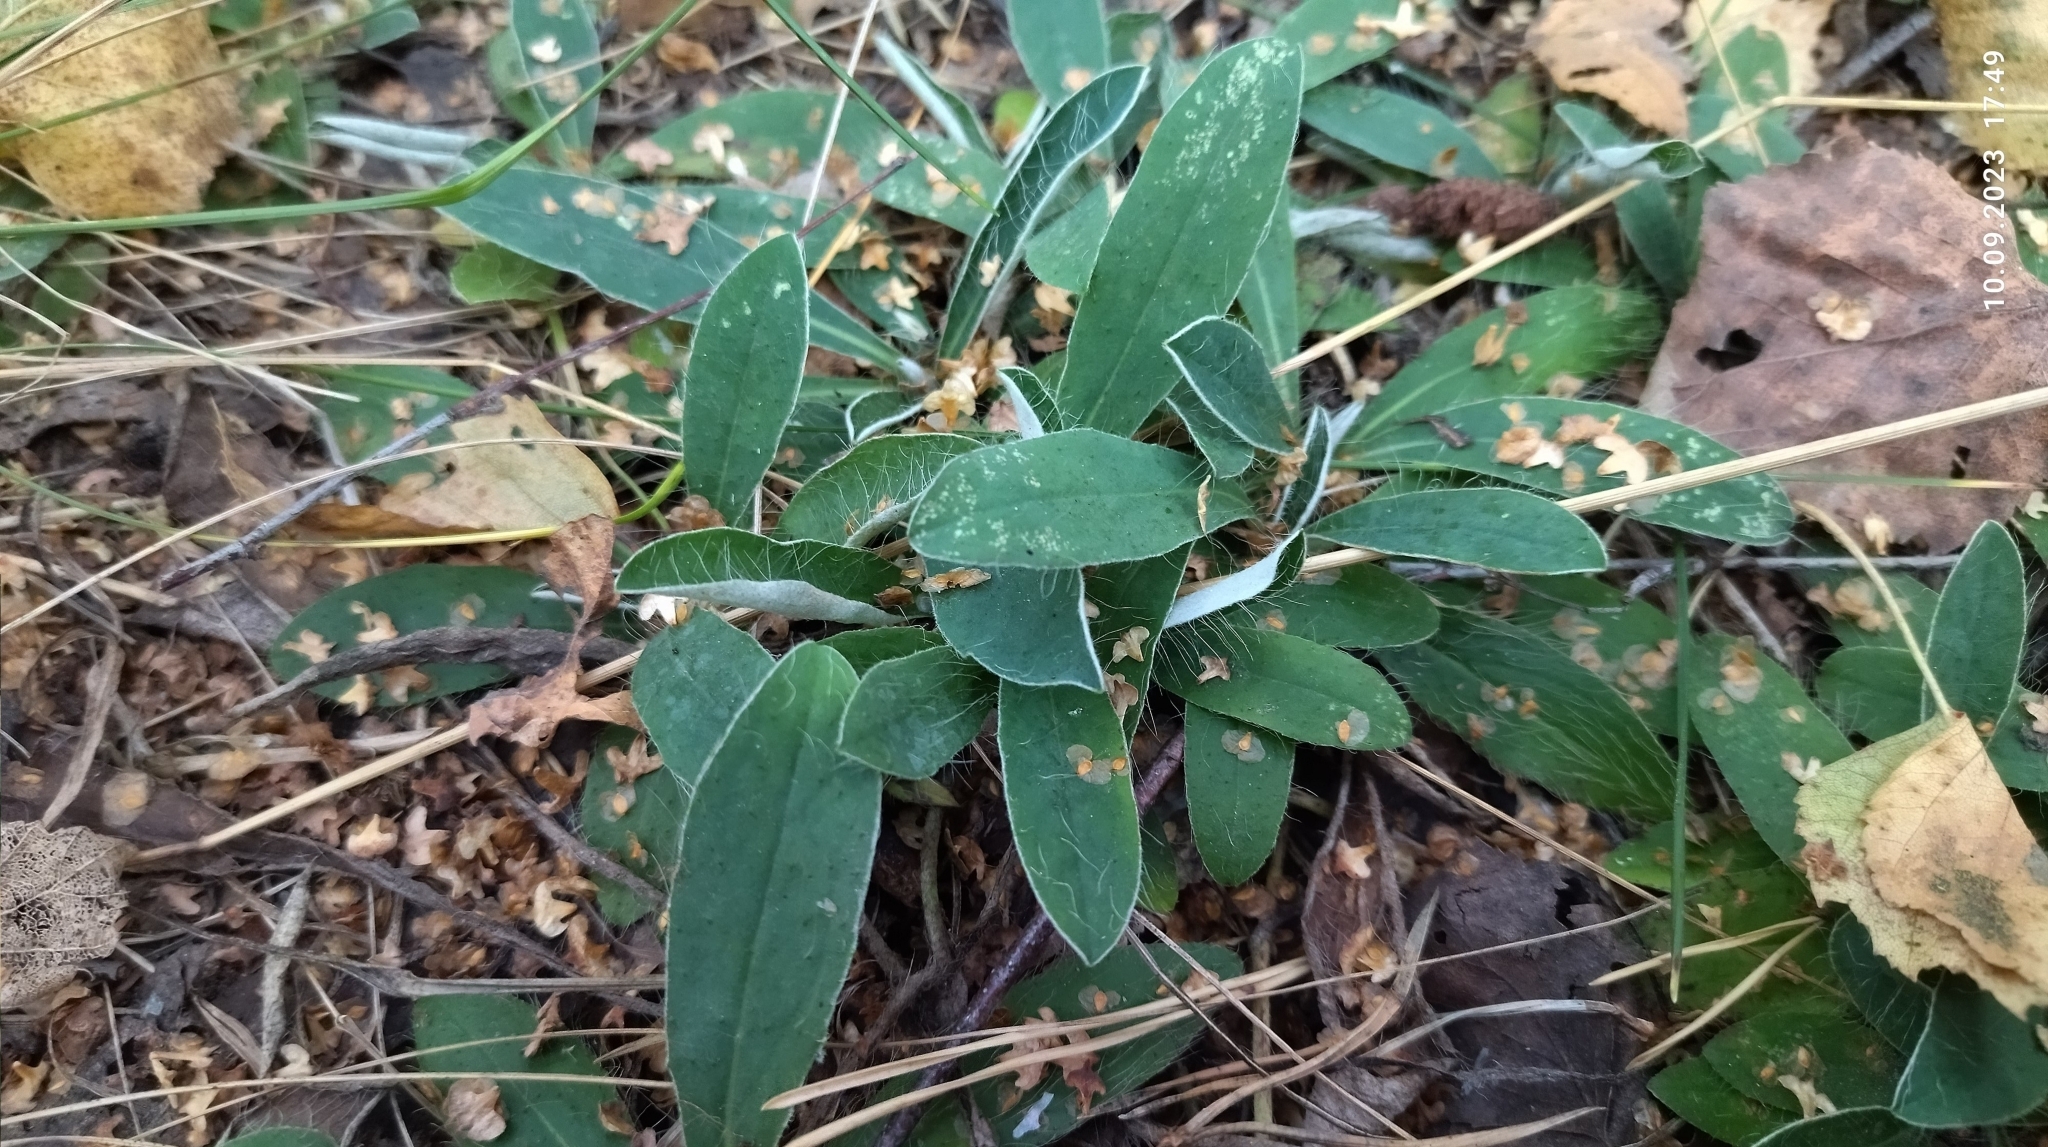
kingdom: Plantae
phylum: Tracheophyta
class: Magnoliopsida
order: Asterales
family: Asteraceae
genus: Pilosella
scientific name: Pilosella officinarum
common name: Mouse-ear hawkweed
